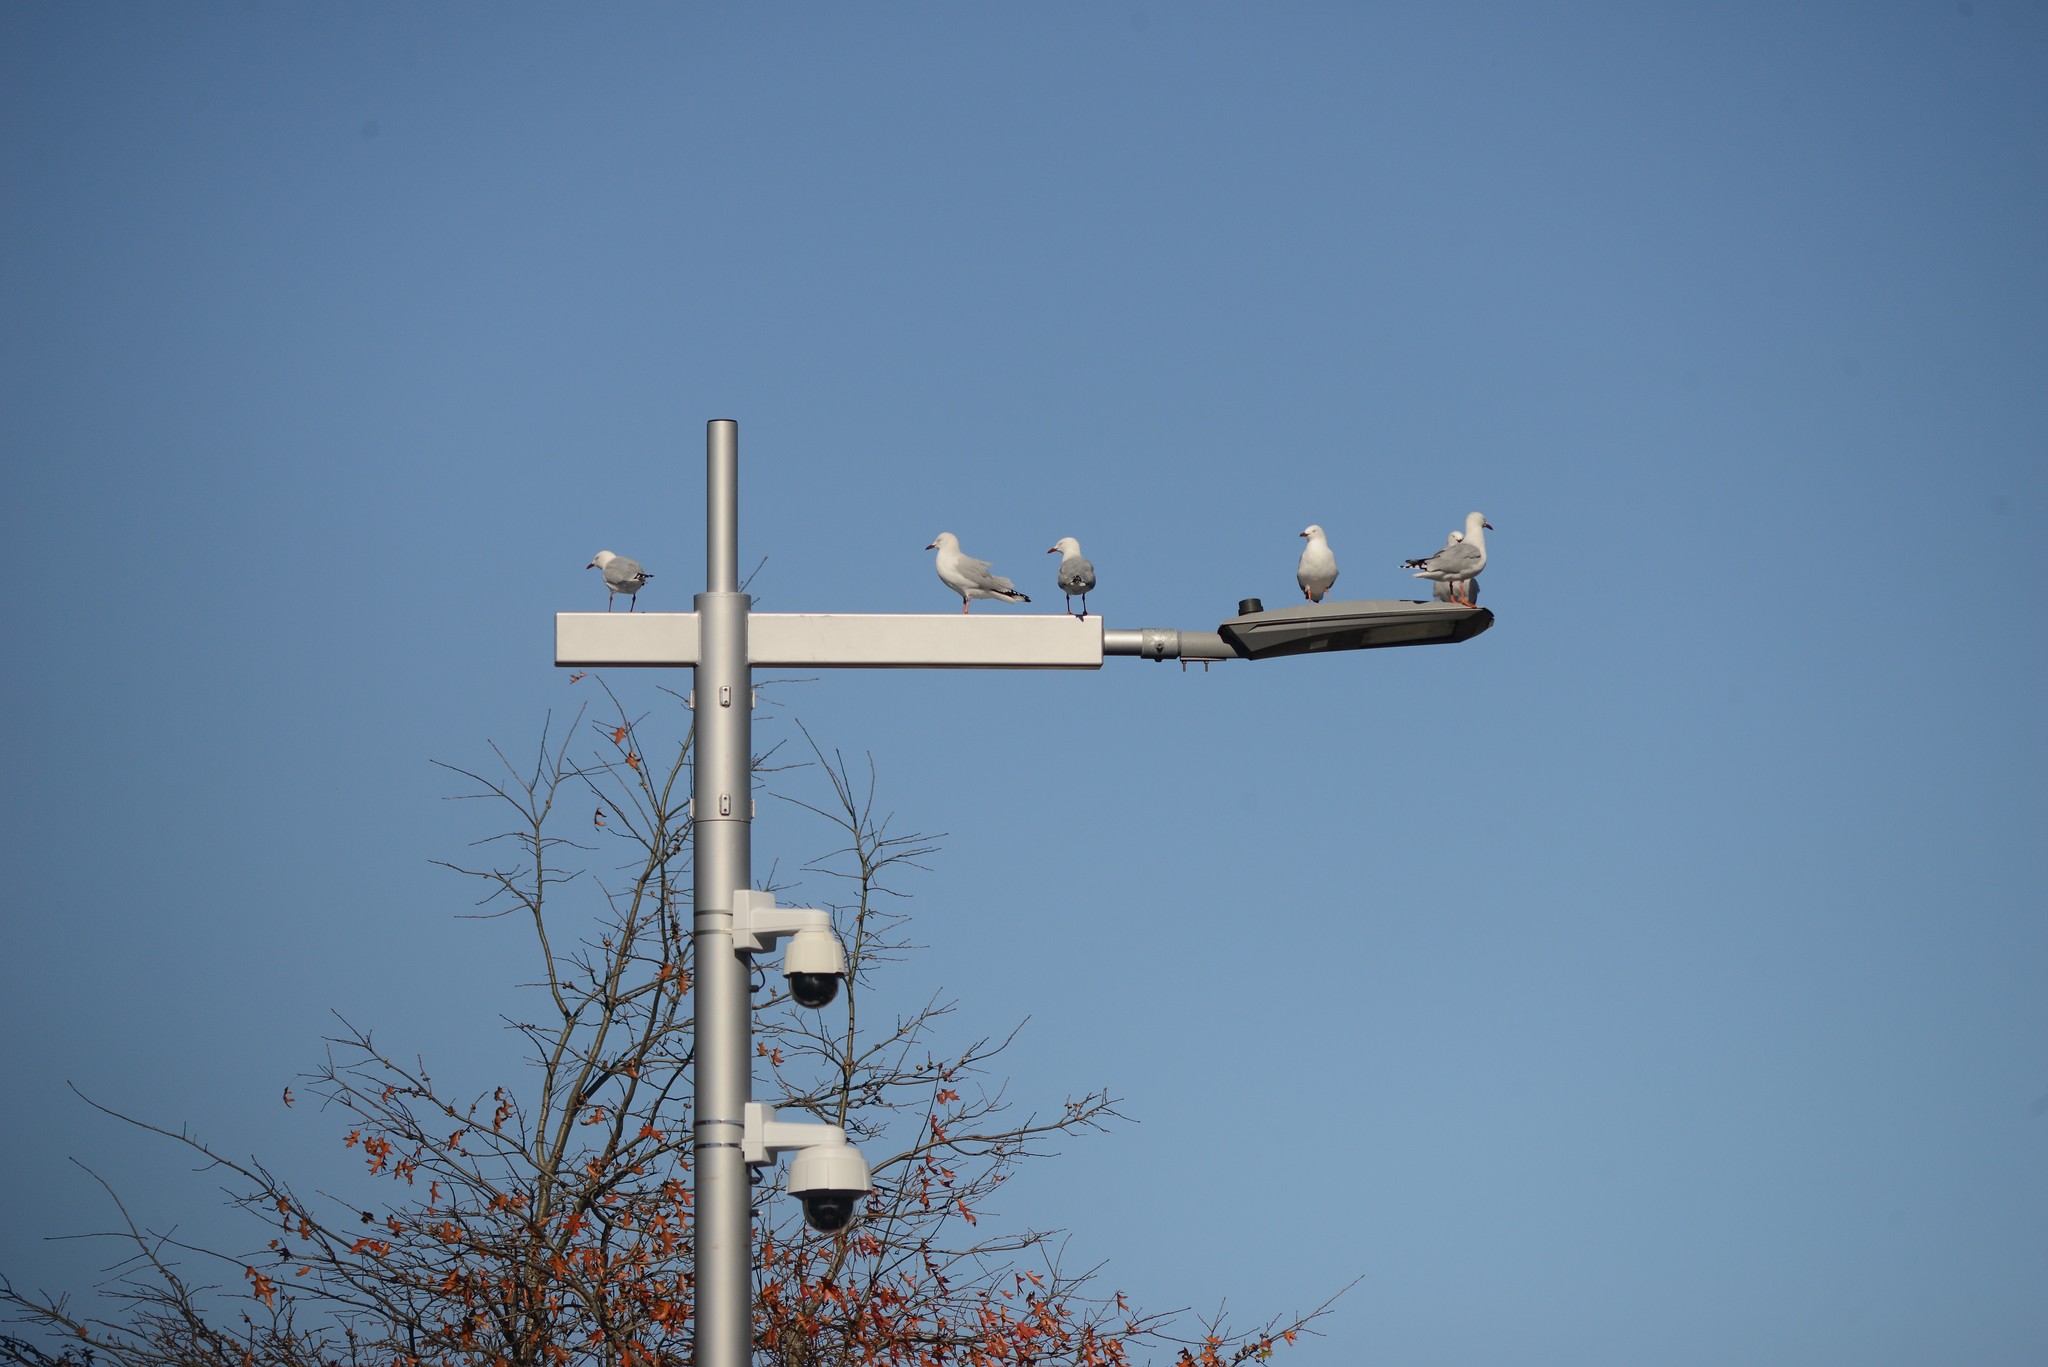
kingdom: Animalia
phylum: Chordata
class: Aves
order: Charadriiformes
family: Laridae
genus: Chroicocephalus
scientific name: Chroicocephalus novaehollandiae
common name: Silver gull
